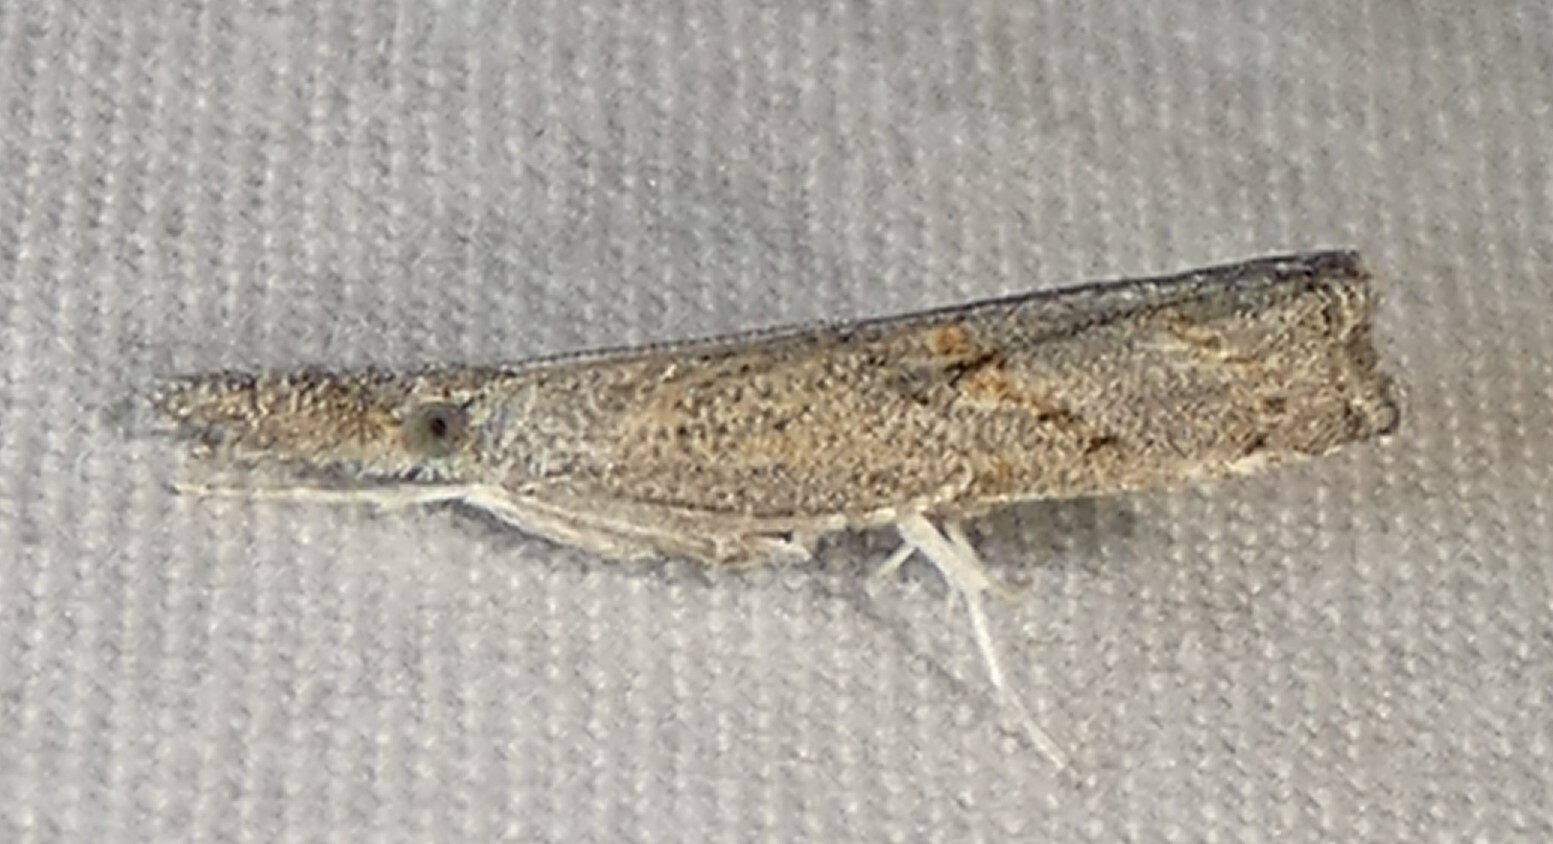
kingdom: Animalia
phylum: Arthropoda
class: Insecta
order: Lepidoptera
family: Crambidae
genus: Neodactria
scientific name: Neodactria luteolellus
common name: Mottled grass-veneer
